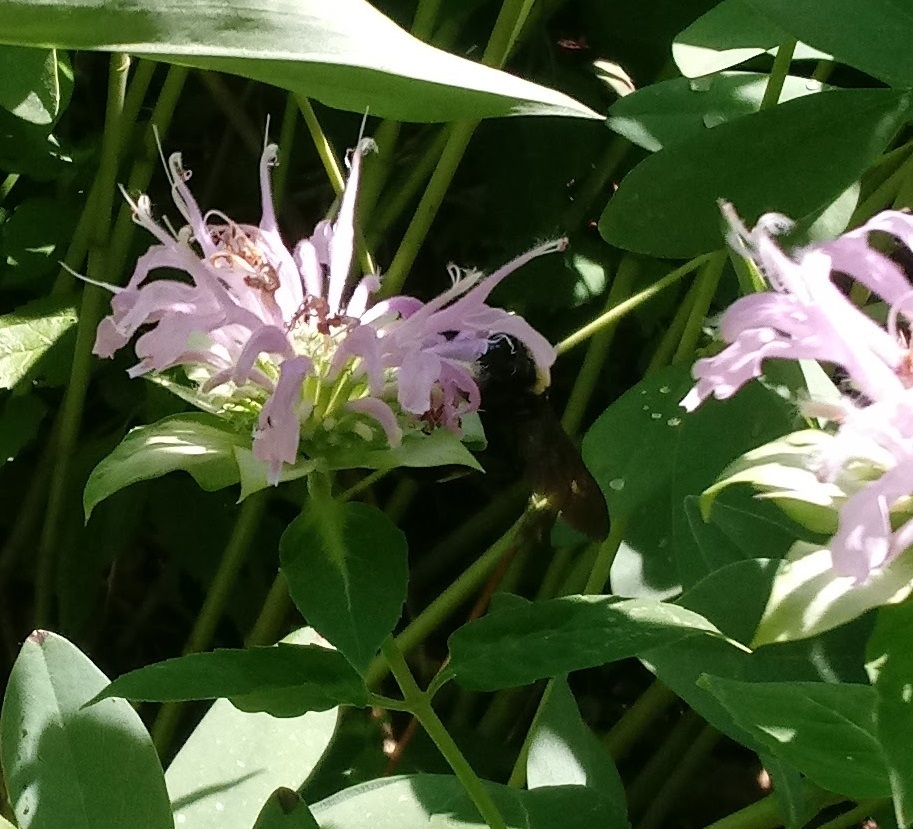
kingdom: Animalia
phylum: Arthropoda
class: Insecta
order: Hymenoptera
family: Apidae
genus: Bombus
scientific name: Bombus auricomus
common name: Black and gold bumble bee
